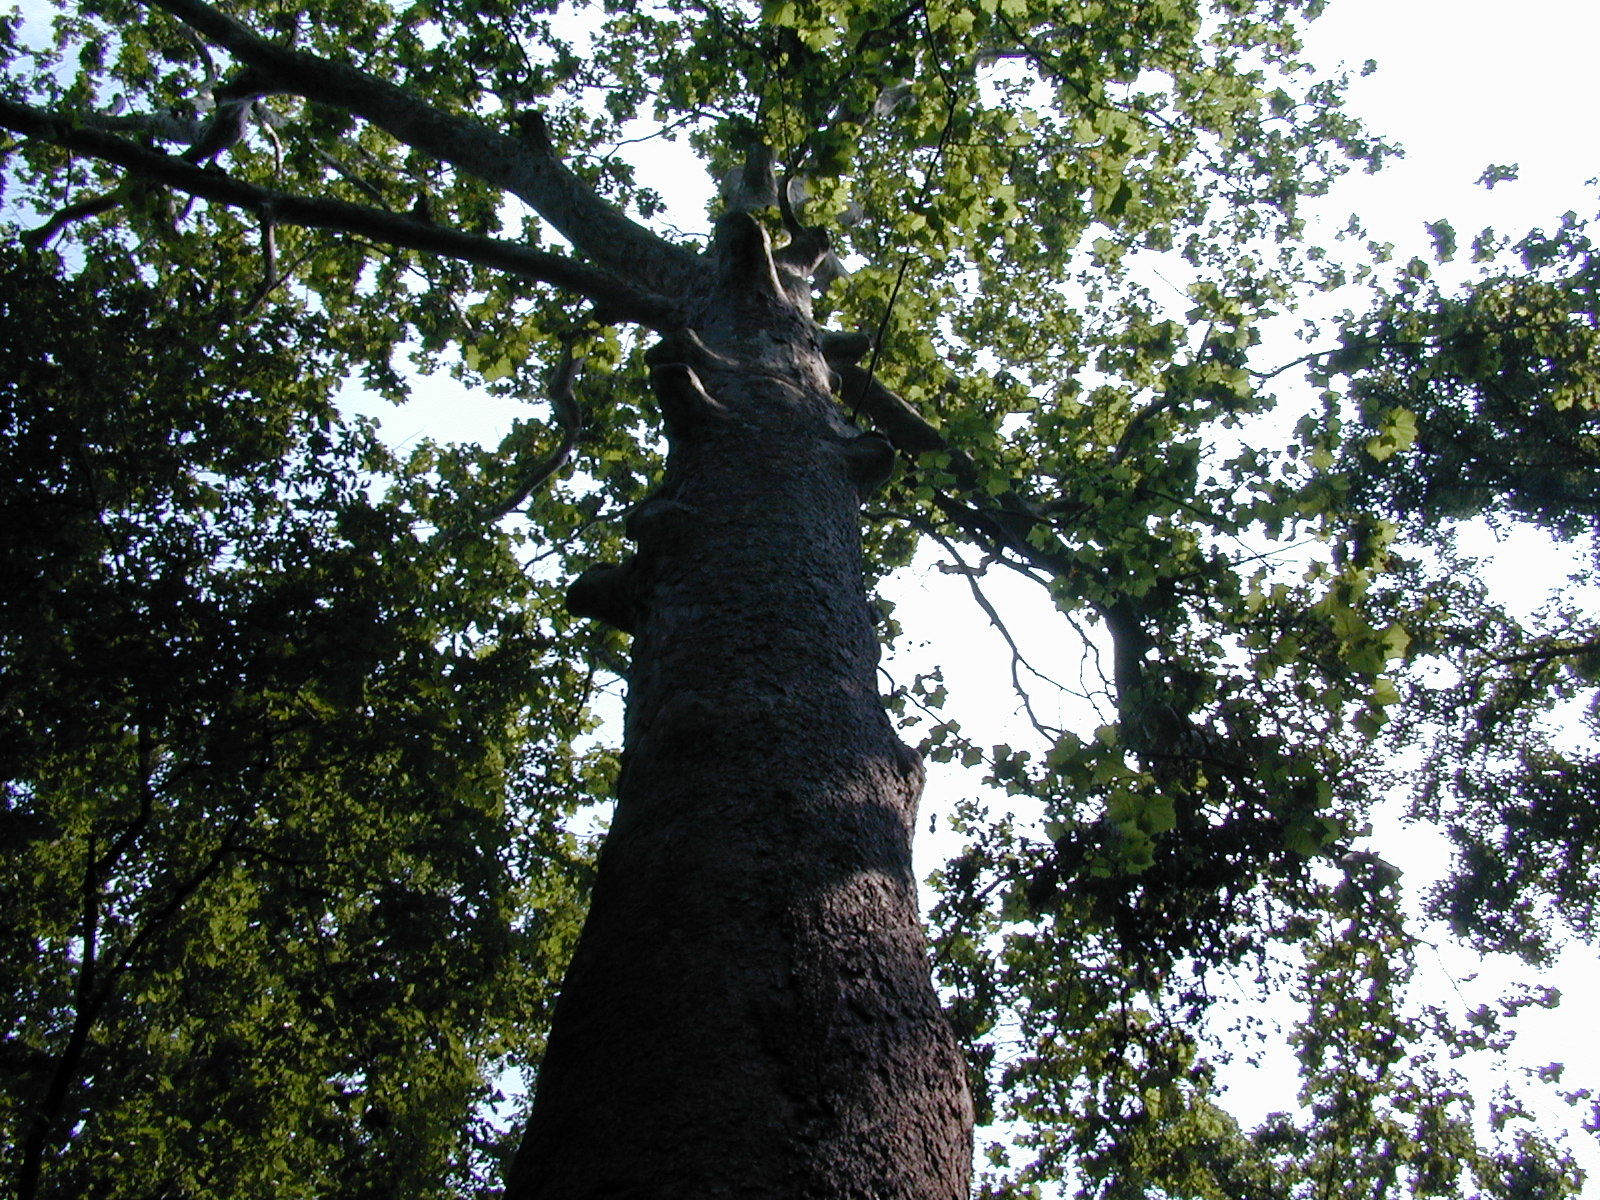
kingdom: Plantae
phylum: Tracheophyta
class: Magnoliopsida
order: Proteales
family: Platanaceae
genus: Platanus
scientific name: Platanus occidentalis
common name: American sycamore
